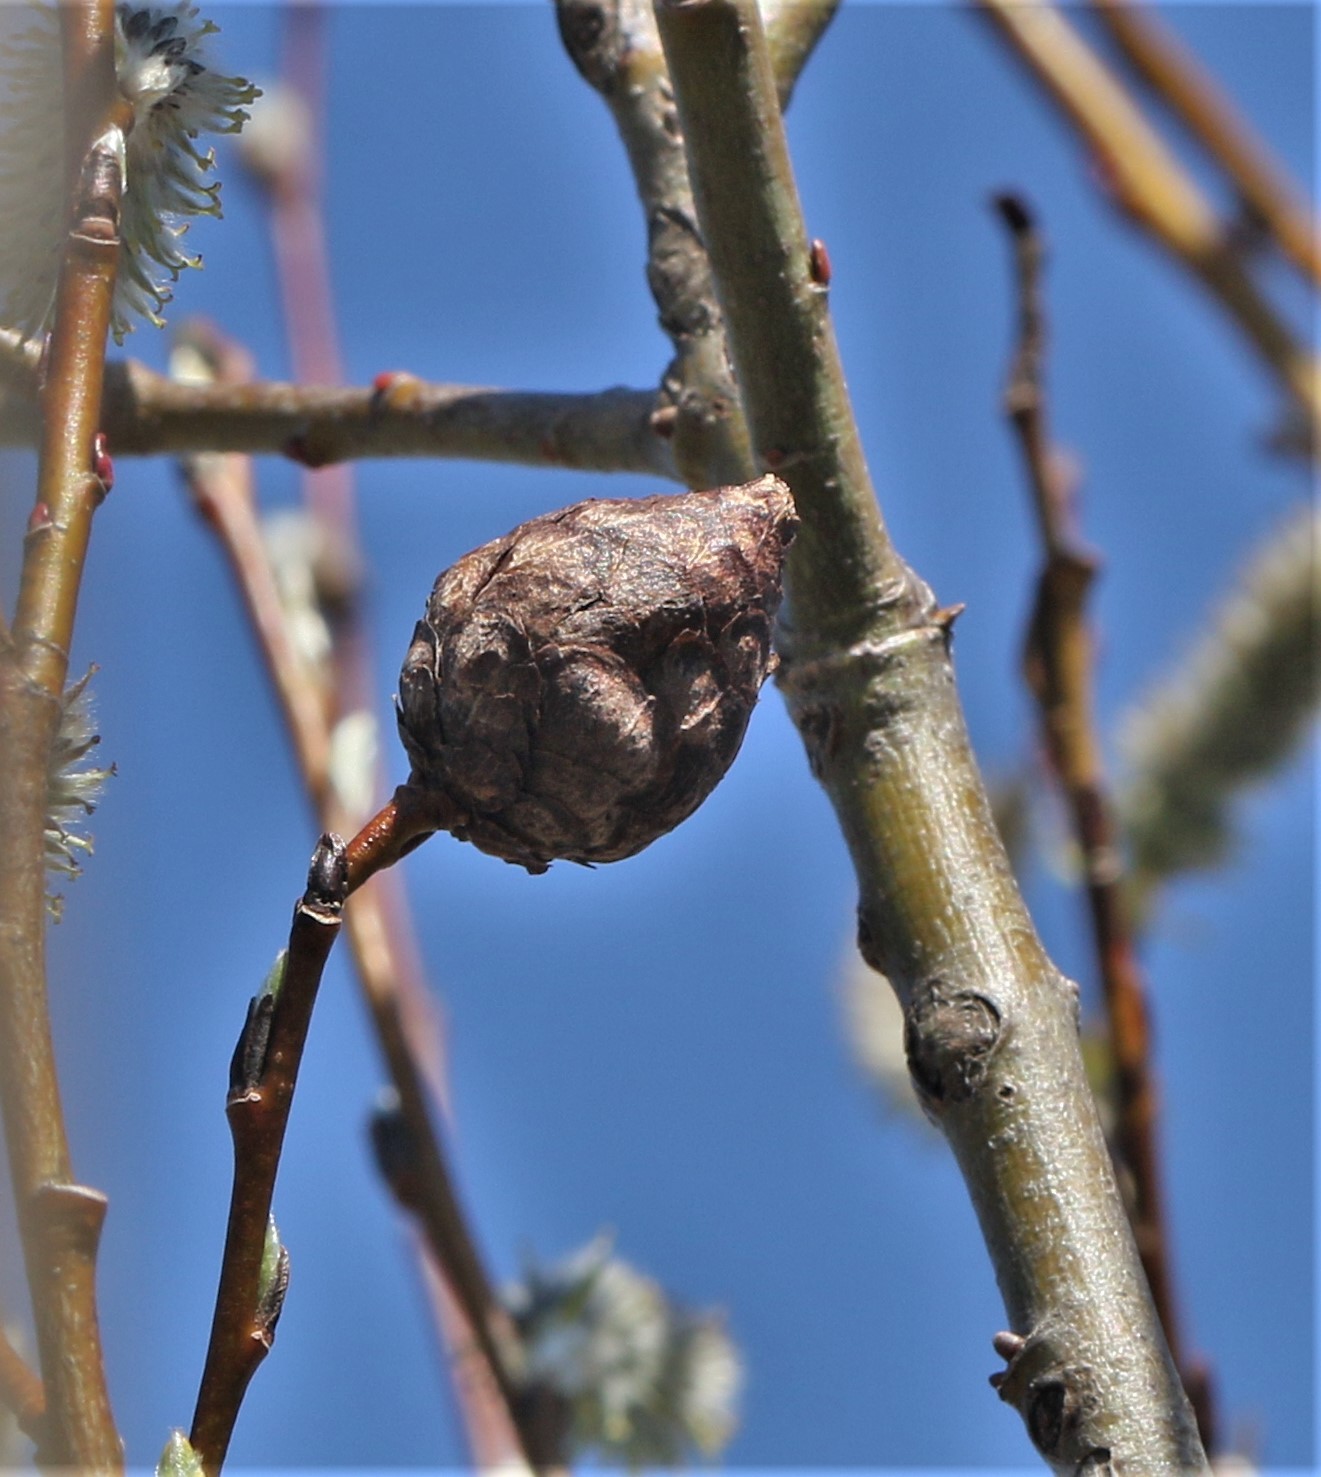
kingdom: Animalia
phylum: Arthropoda
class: Insecta
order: Diptera
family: Cecidomyiidae
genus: Rabdophaga
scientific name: Rabdophaga strobiloides
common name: Willow pinecone gall midge
